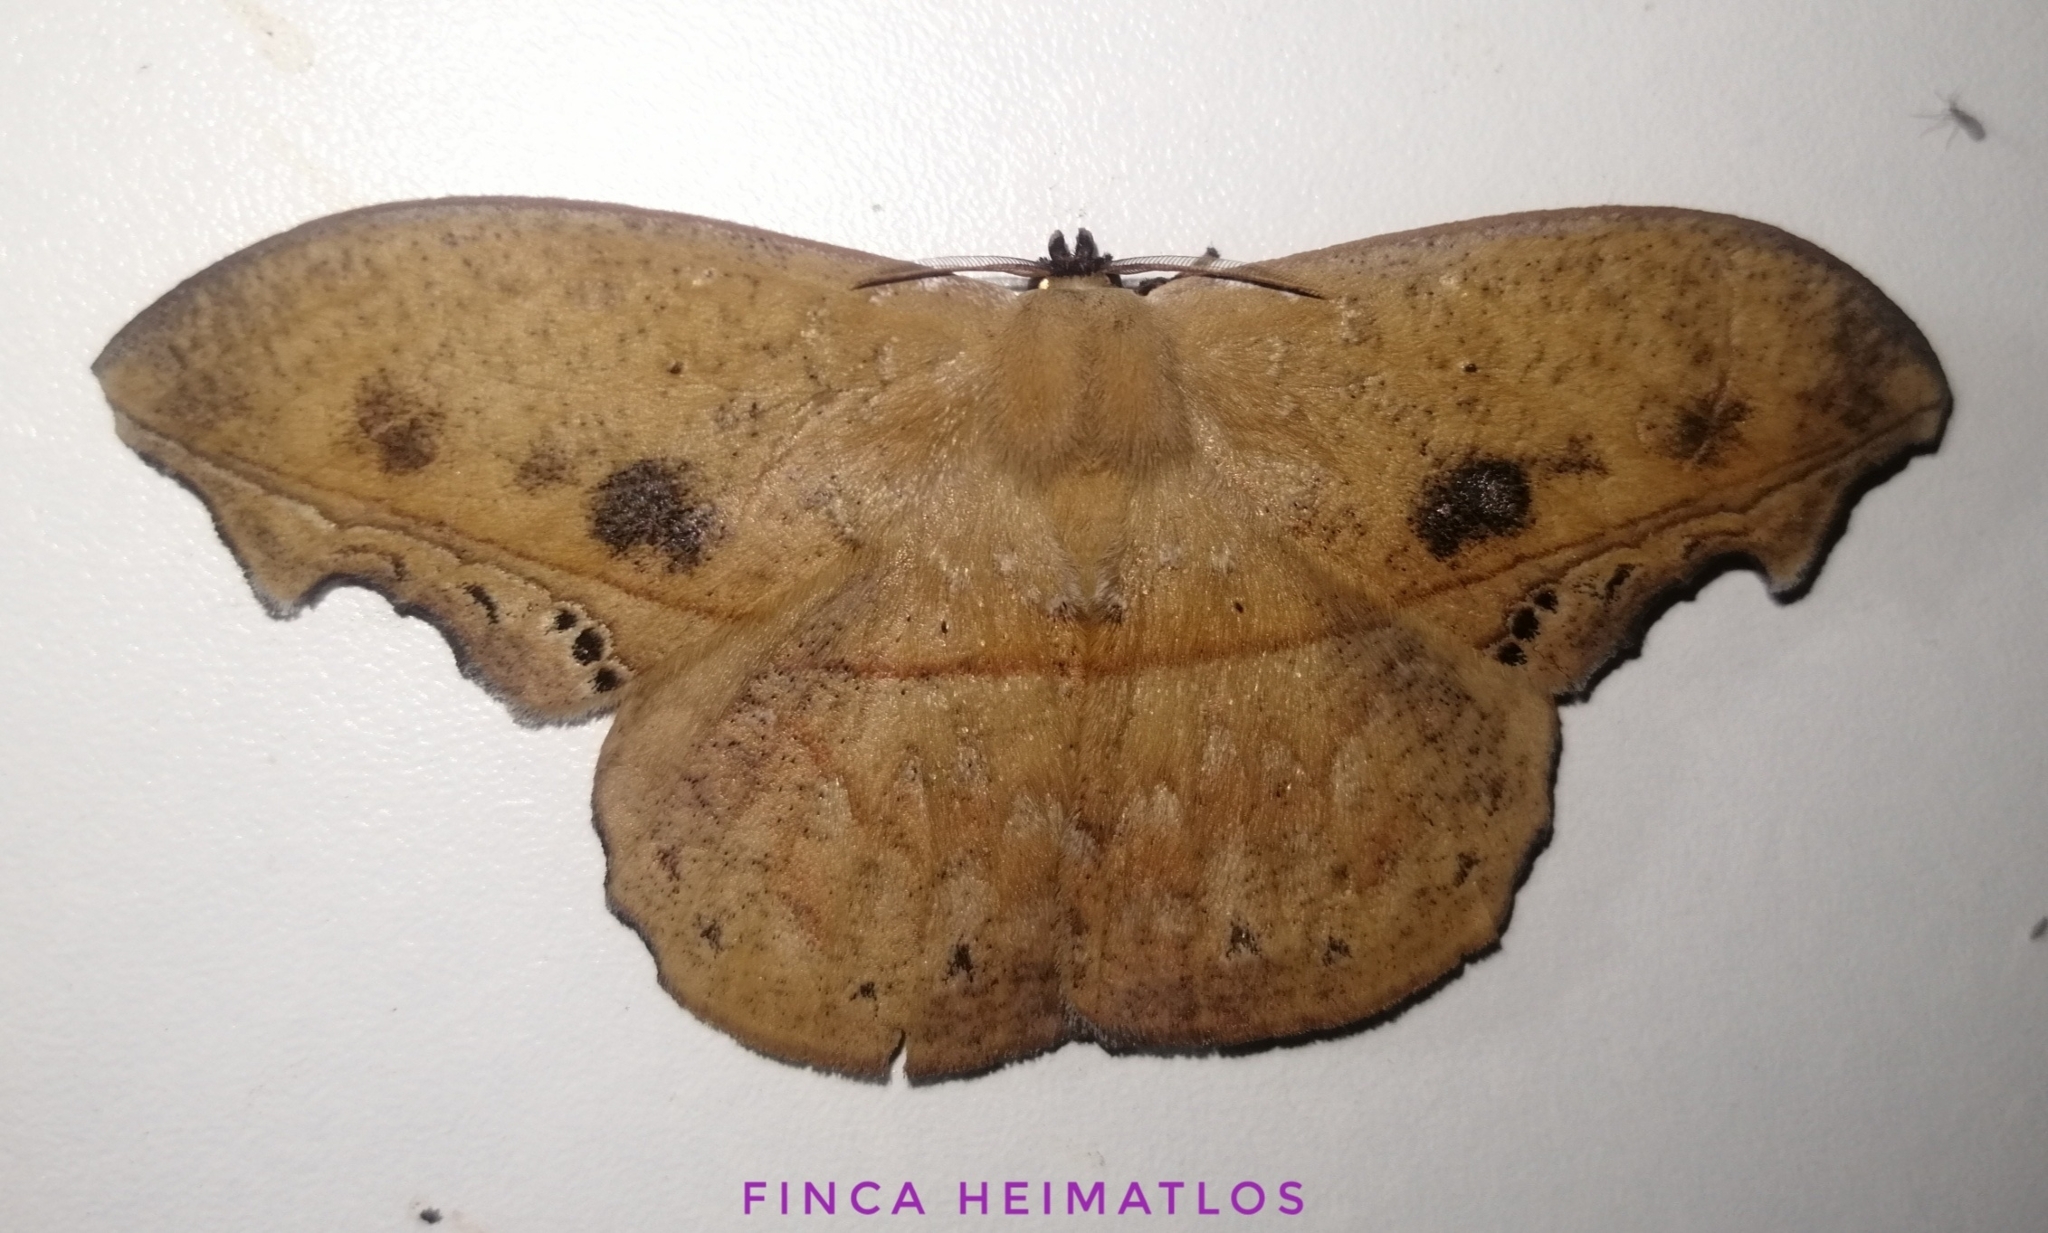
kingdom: Animalia
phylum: Arthropoda
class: Insecta
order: Lepidoptera
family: Saturniidae
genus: Oxytenis
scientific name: Oxytenis naemia
